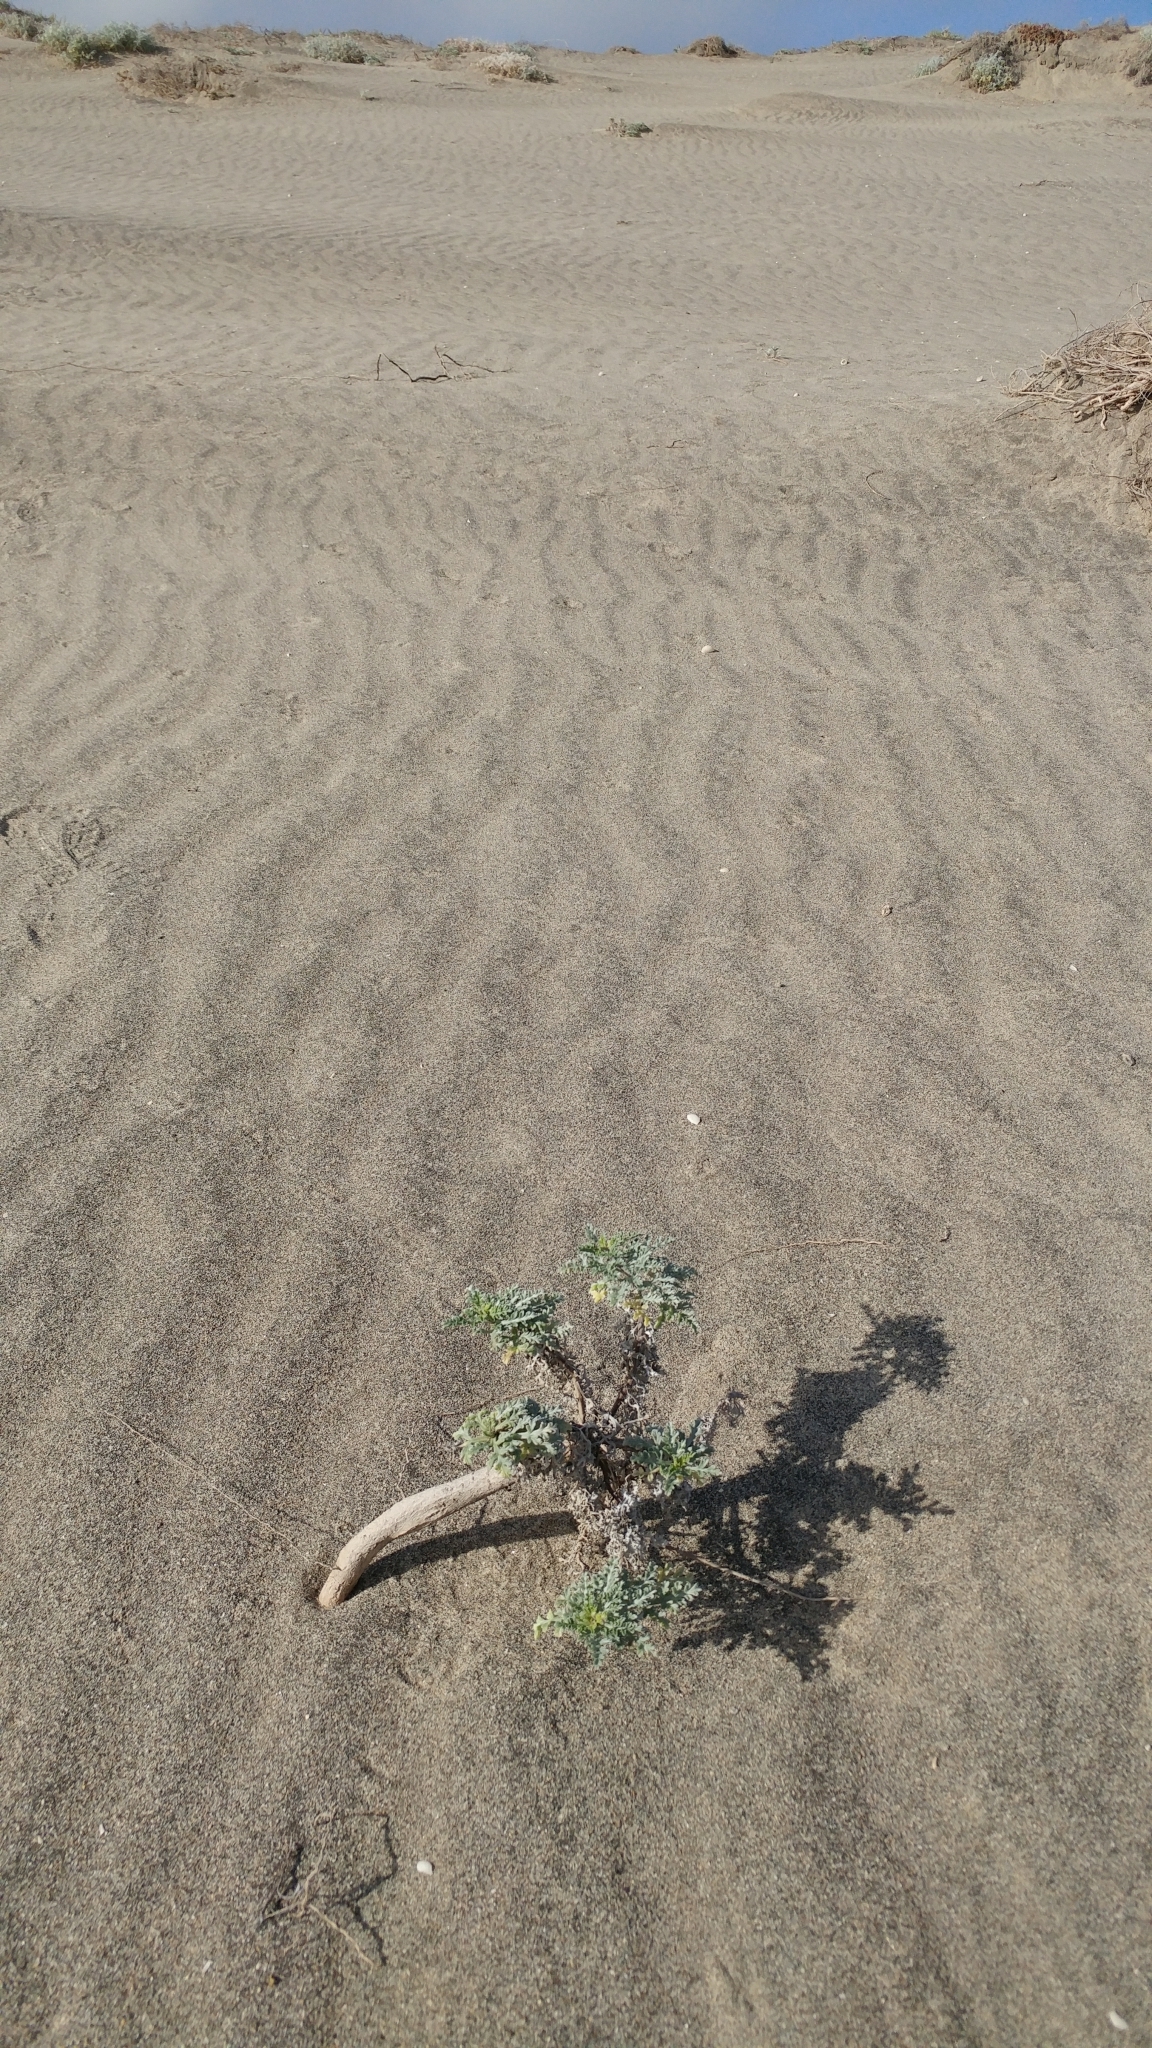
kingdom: Plantae
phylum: Tracheophyta
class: Magnoliopsida
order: Asterales
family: Asteraceae
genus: Ambrosia
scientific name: Ambrosia chamissonis
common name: Beachbur
